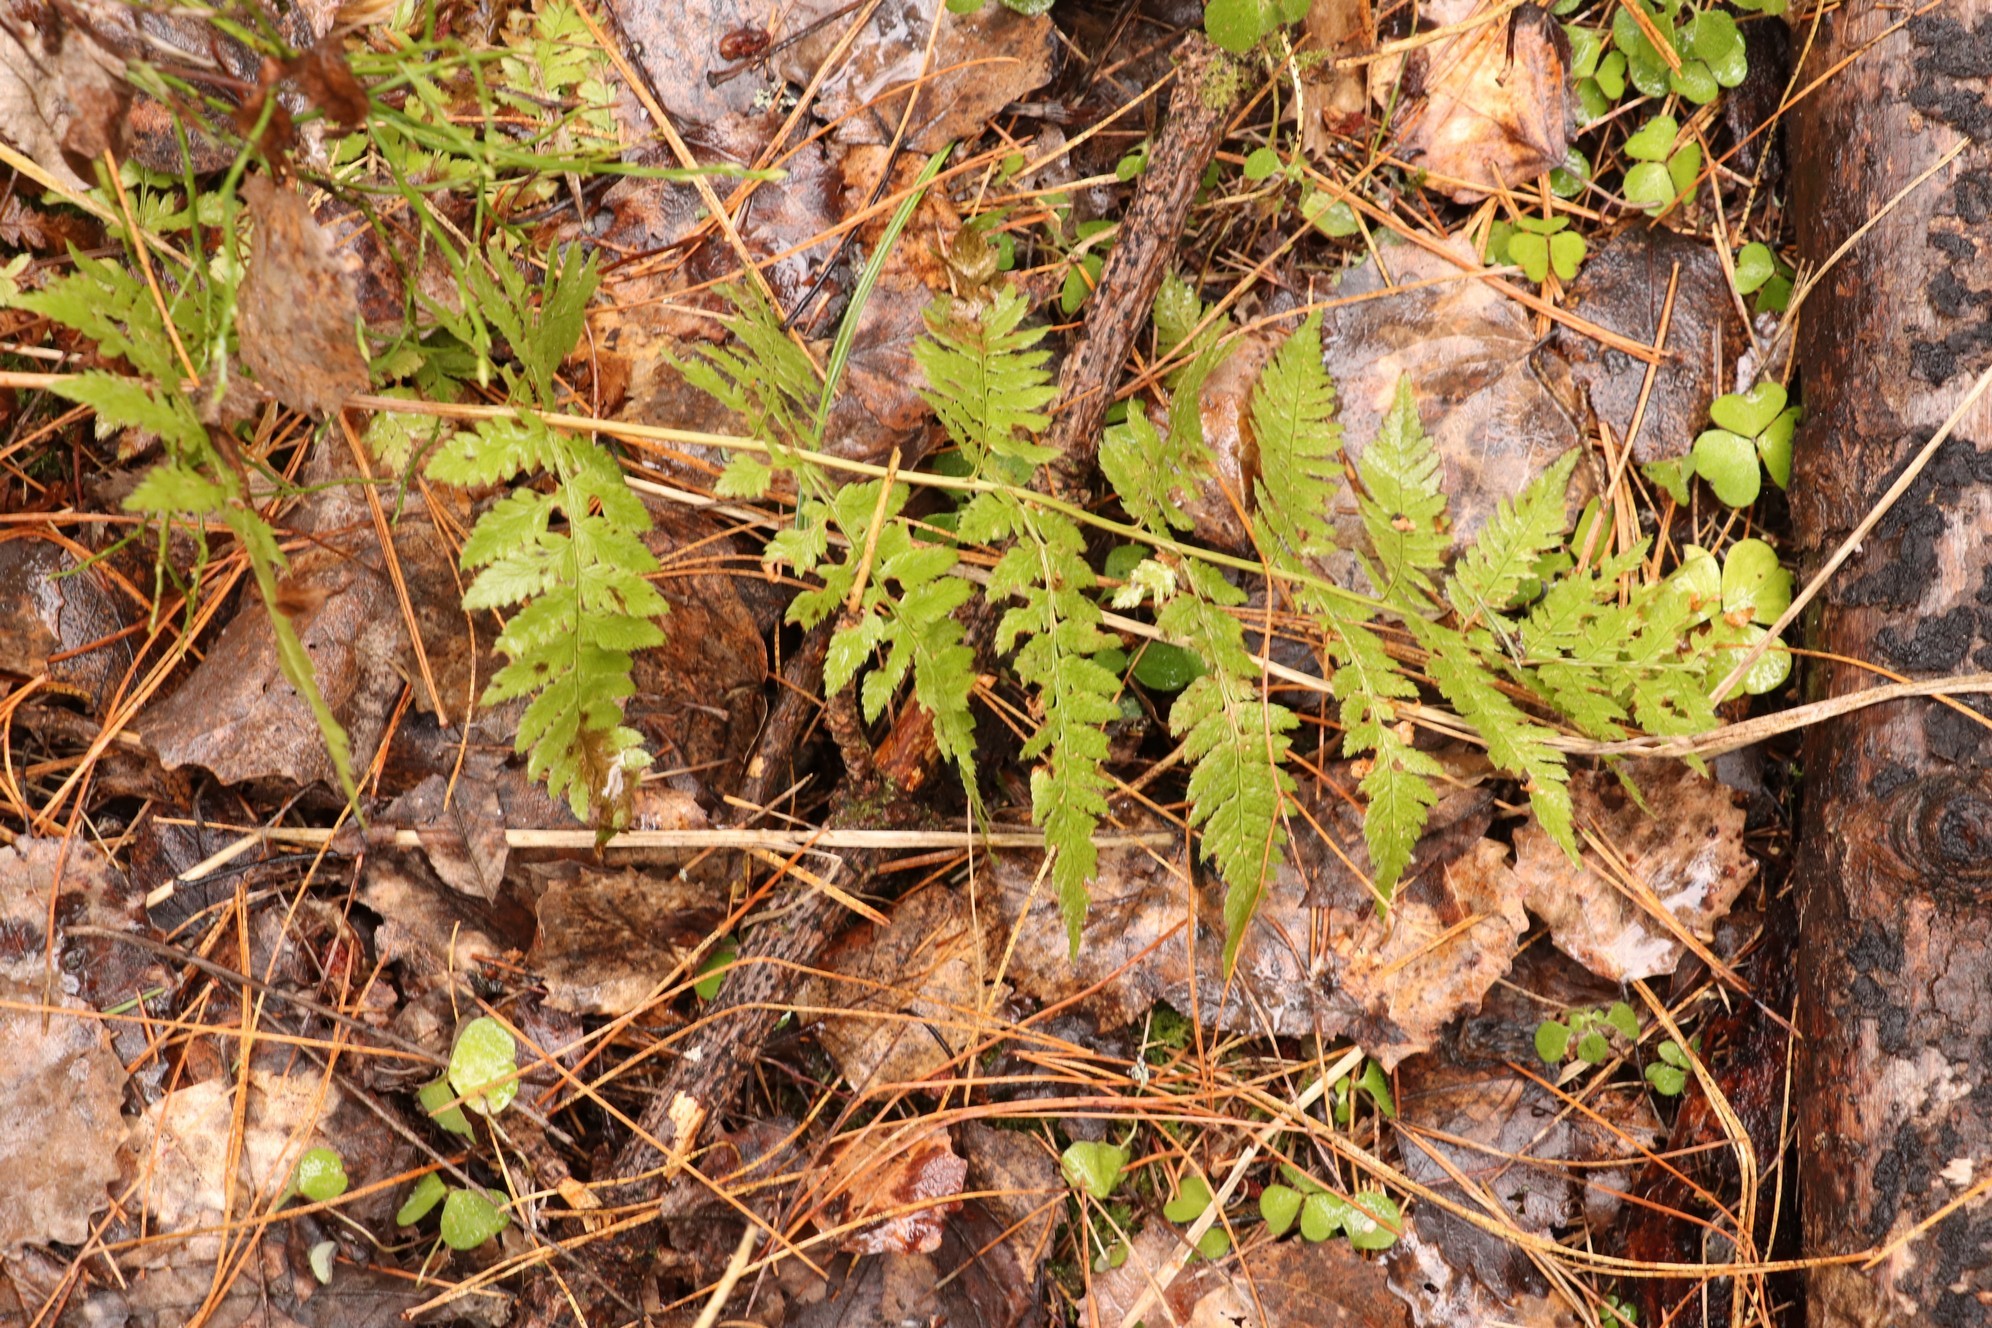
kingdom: Plantae
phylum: Tracheophyta
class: Polypodiopsida
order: Polypodiales
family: Dryopteridaceae
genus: Dryopteris
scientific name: Dryopteris carthusiana
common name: Narrow buckler-fern
